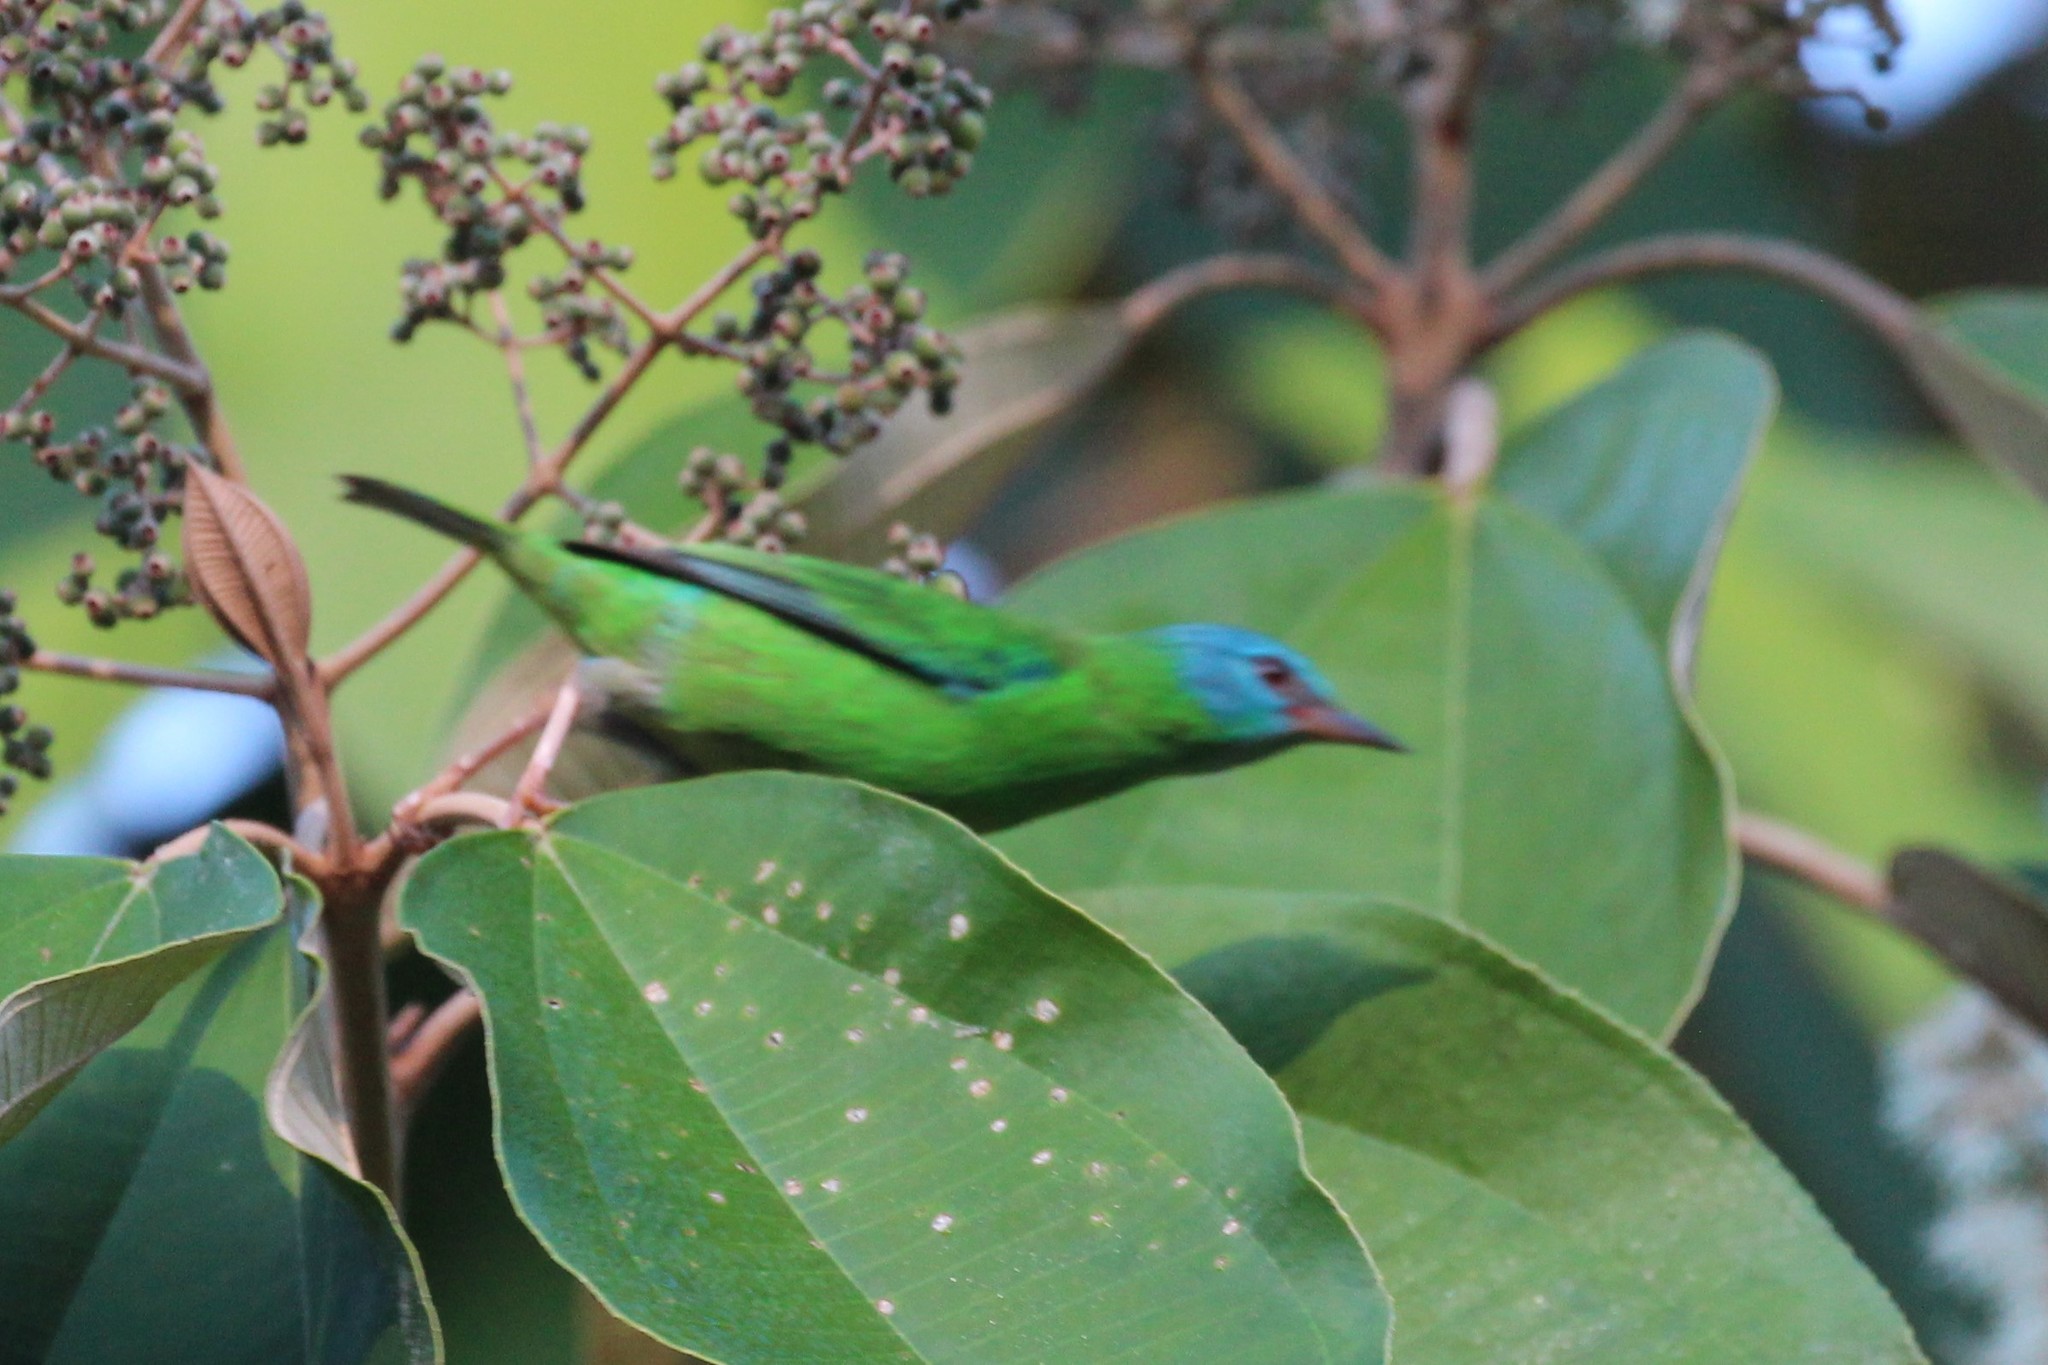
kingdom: Animalia
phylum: Chordata
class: Aves
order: Passeriformes
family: Thraupidae
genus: Dacnis
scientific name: Dacnis cayana
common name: Blue dacnis
